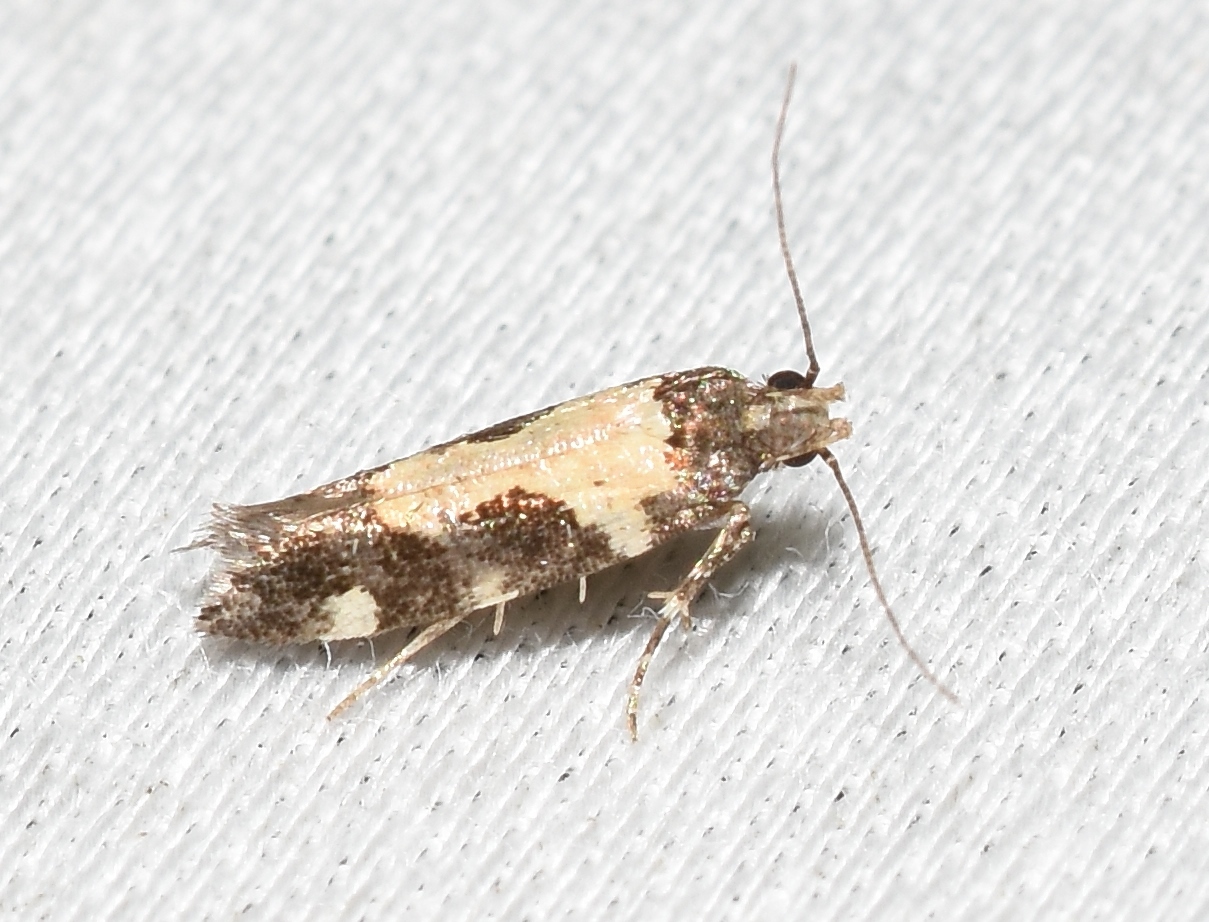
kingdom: Animalia
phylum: Arthropoda
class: Insecta
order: Lepidoptera
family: Gelechiidae
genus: Stegasta
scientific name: Stegasta bosqueella
